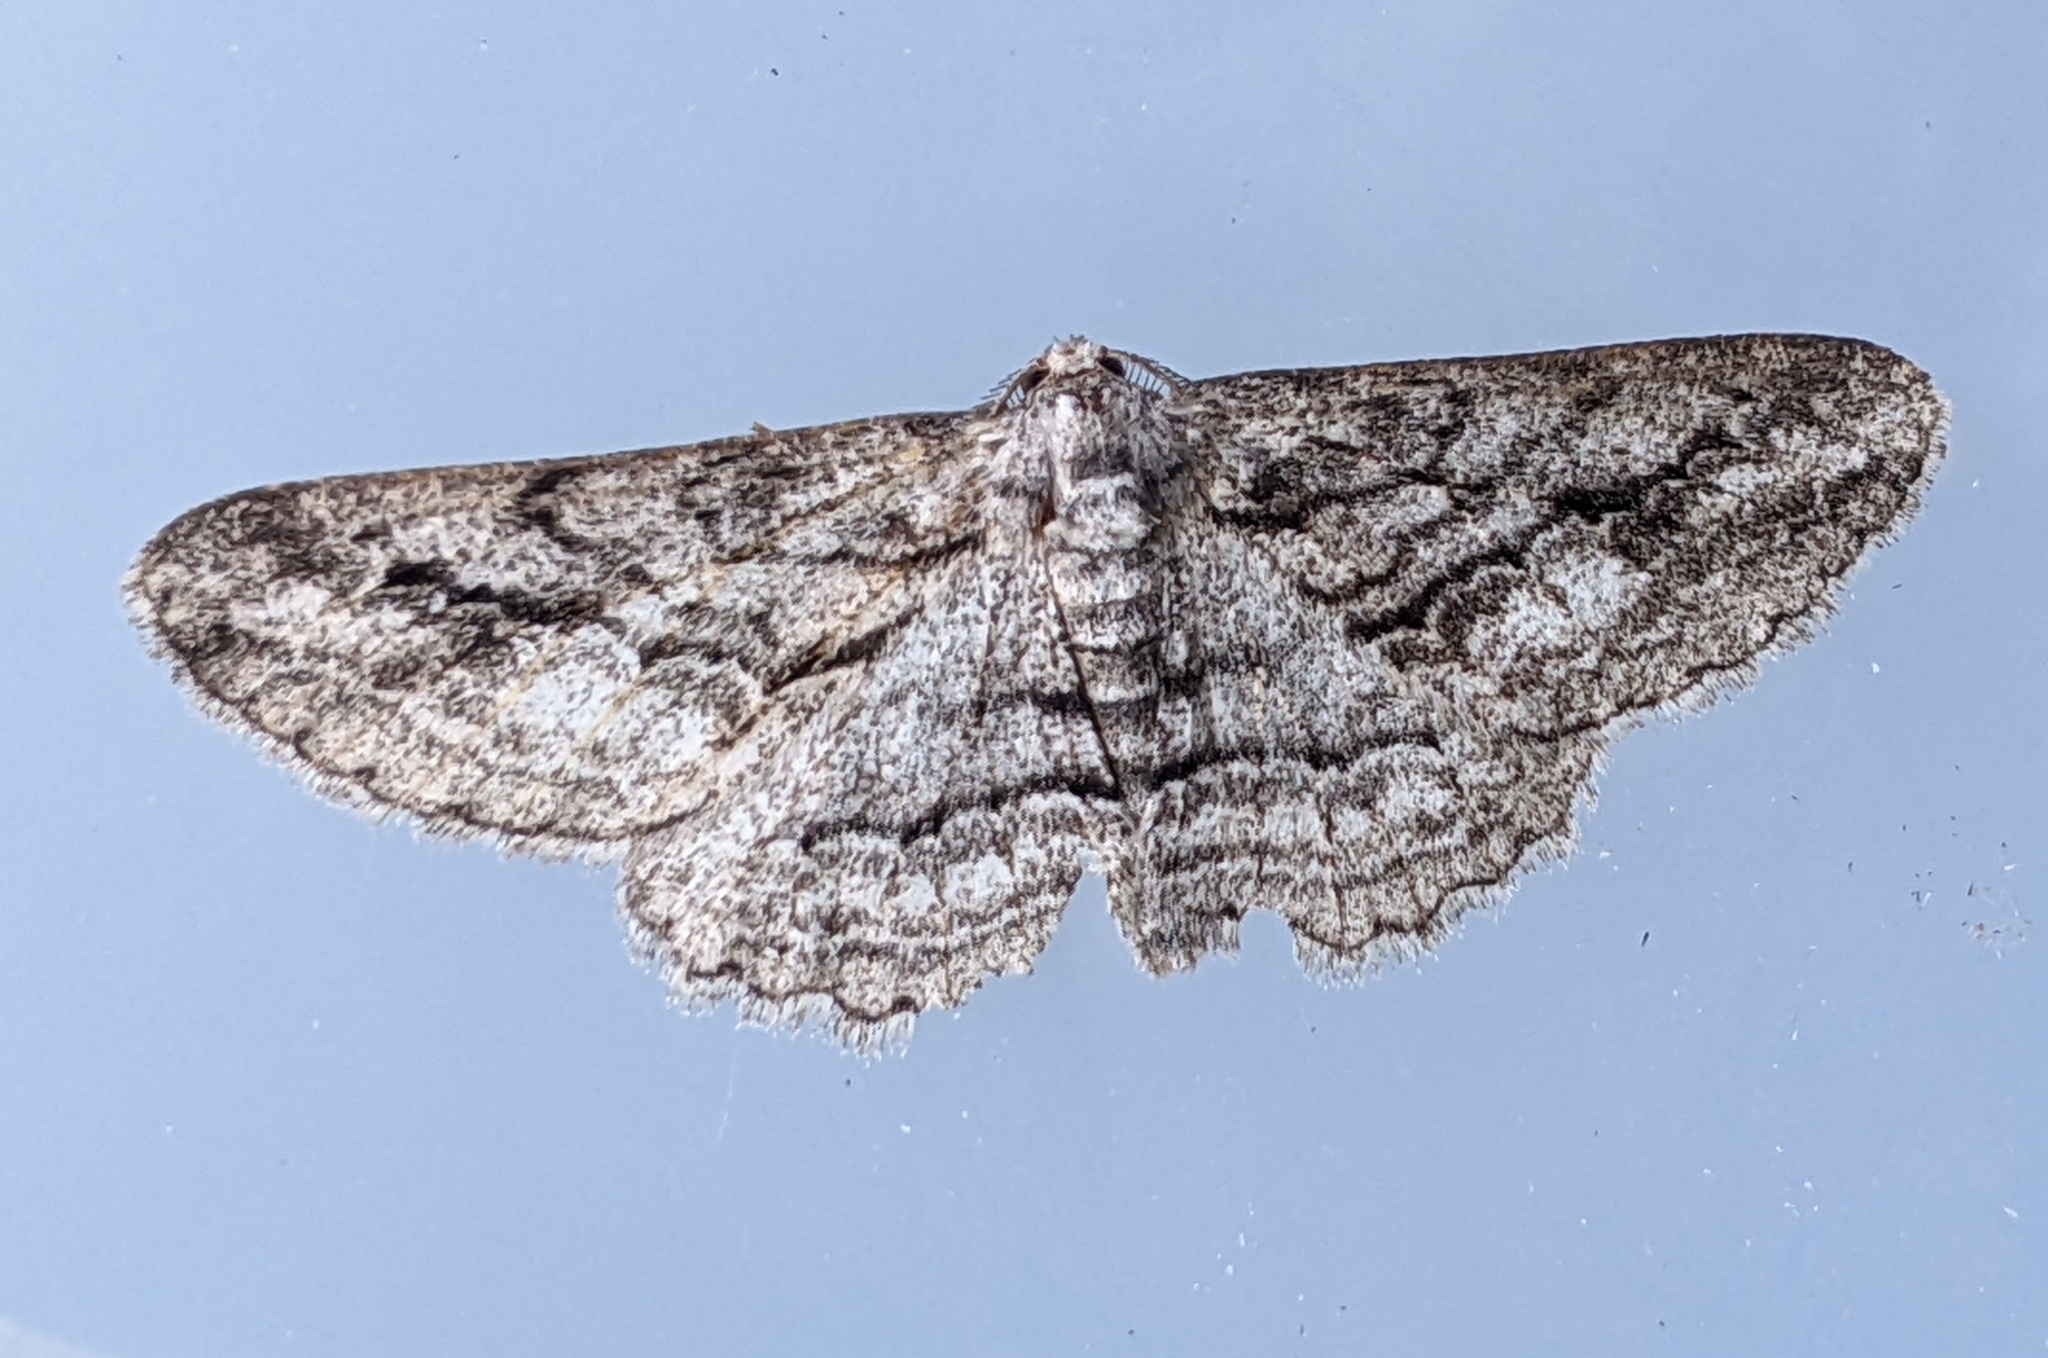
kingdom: Animalia
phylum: Arthropoda
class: Insecta
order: Lepidoptera
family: Geometridae
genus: Stenoporpia
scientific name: Stenoporpia excelsaria
